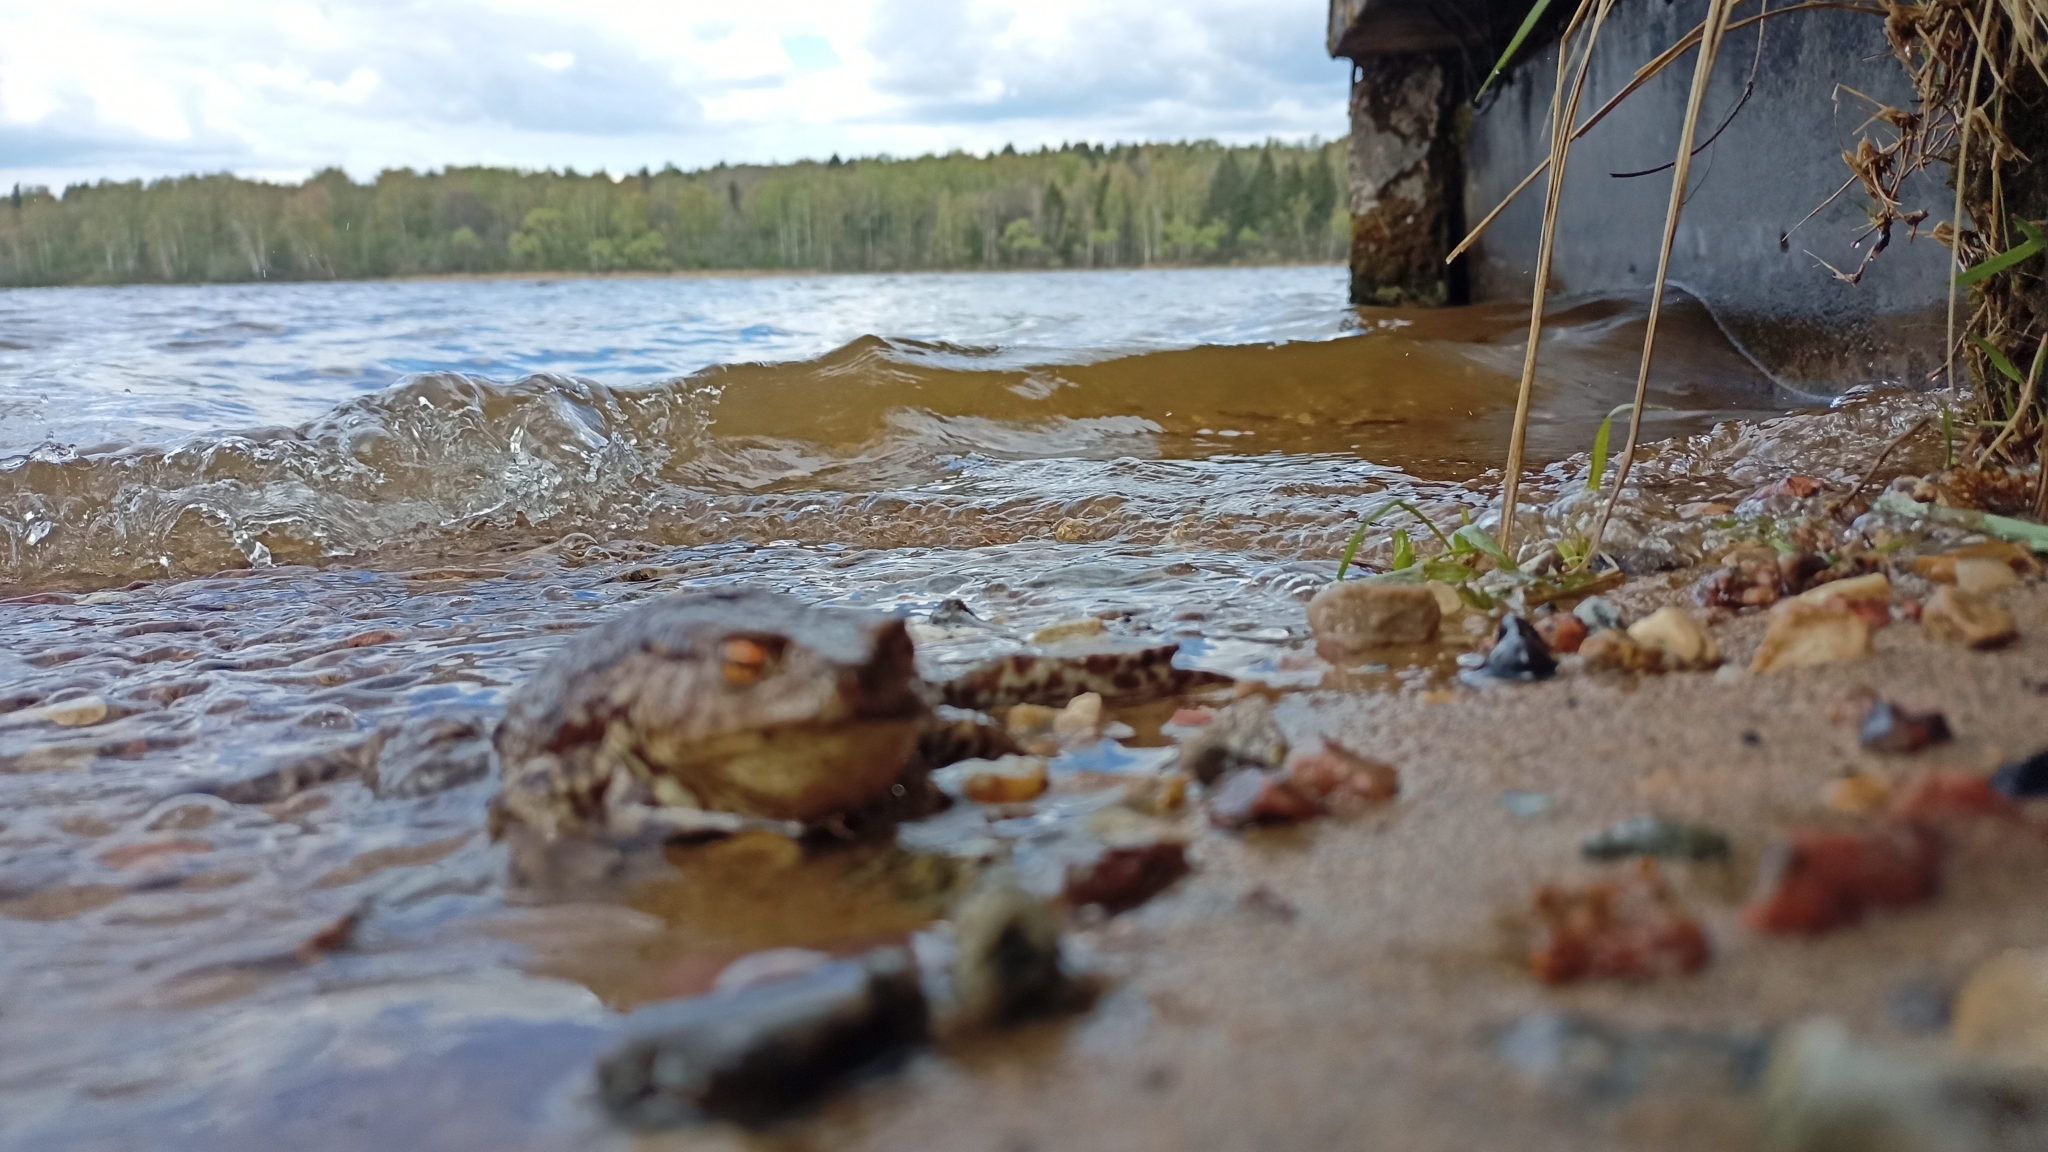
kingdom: Animalia
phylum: Chordata
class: Amphibia
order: Anura
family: Bufonidae
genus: Bufo
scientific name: Bufo bufo
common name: Common toad
